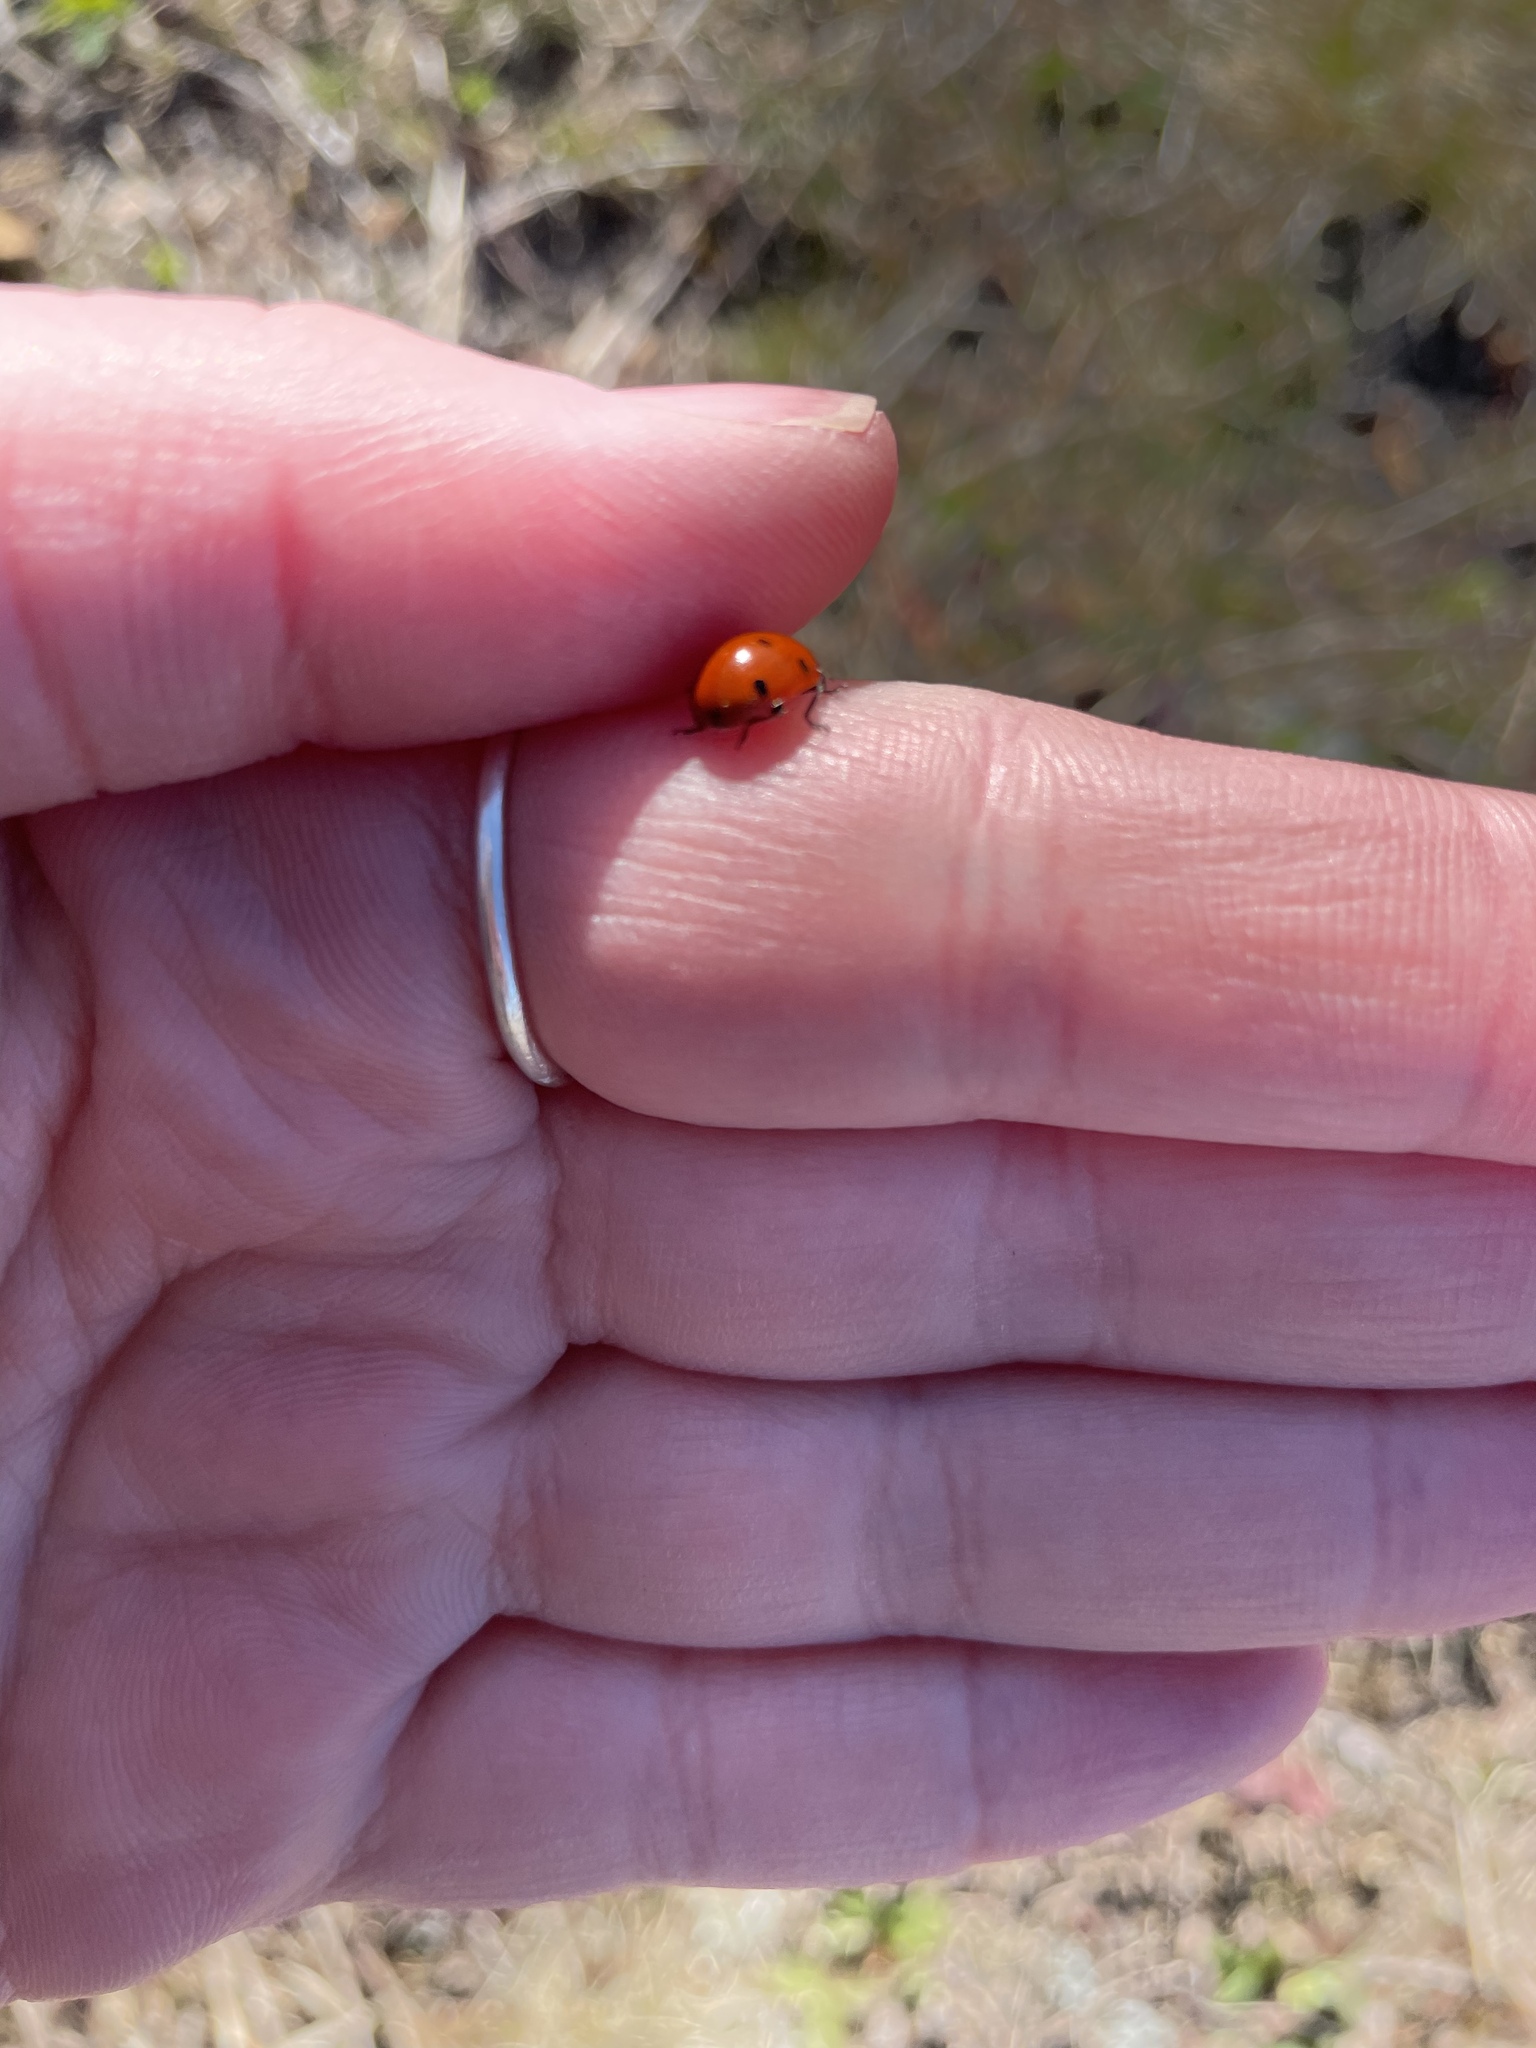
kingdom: Animalia
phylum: Arthropoda
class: Insecta
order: Coleoptera
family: Coccinellidae
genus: Coccinella
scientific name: Coccinella septempunctata
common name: Sevenspotted lady beetle
